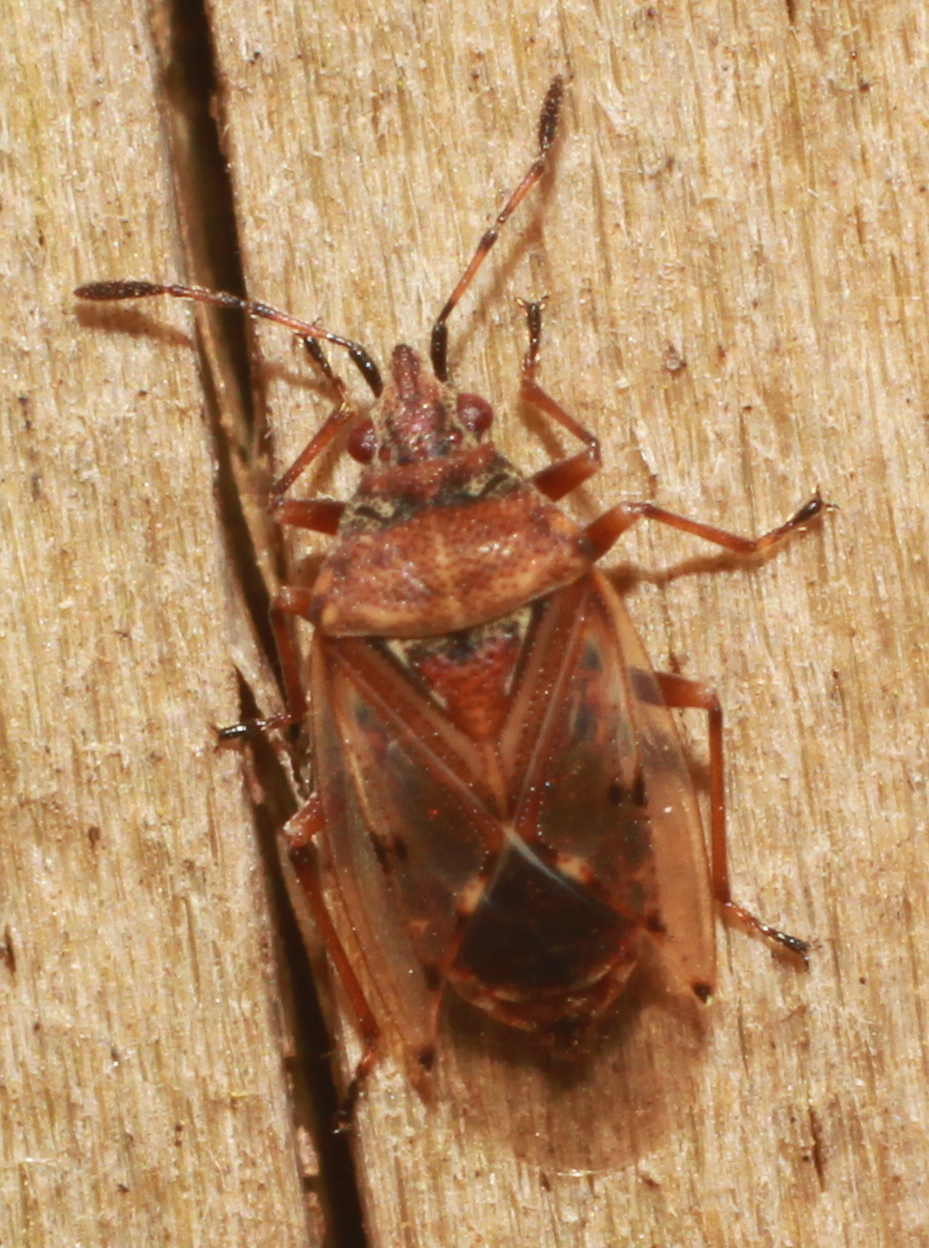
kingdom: Animalia
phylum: Arthropoda
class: Insecta
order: Hemiptera
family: Lygaeidae
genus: Kleidocerys
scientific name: Kleidocerys resedae
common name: Birch catkin bug
